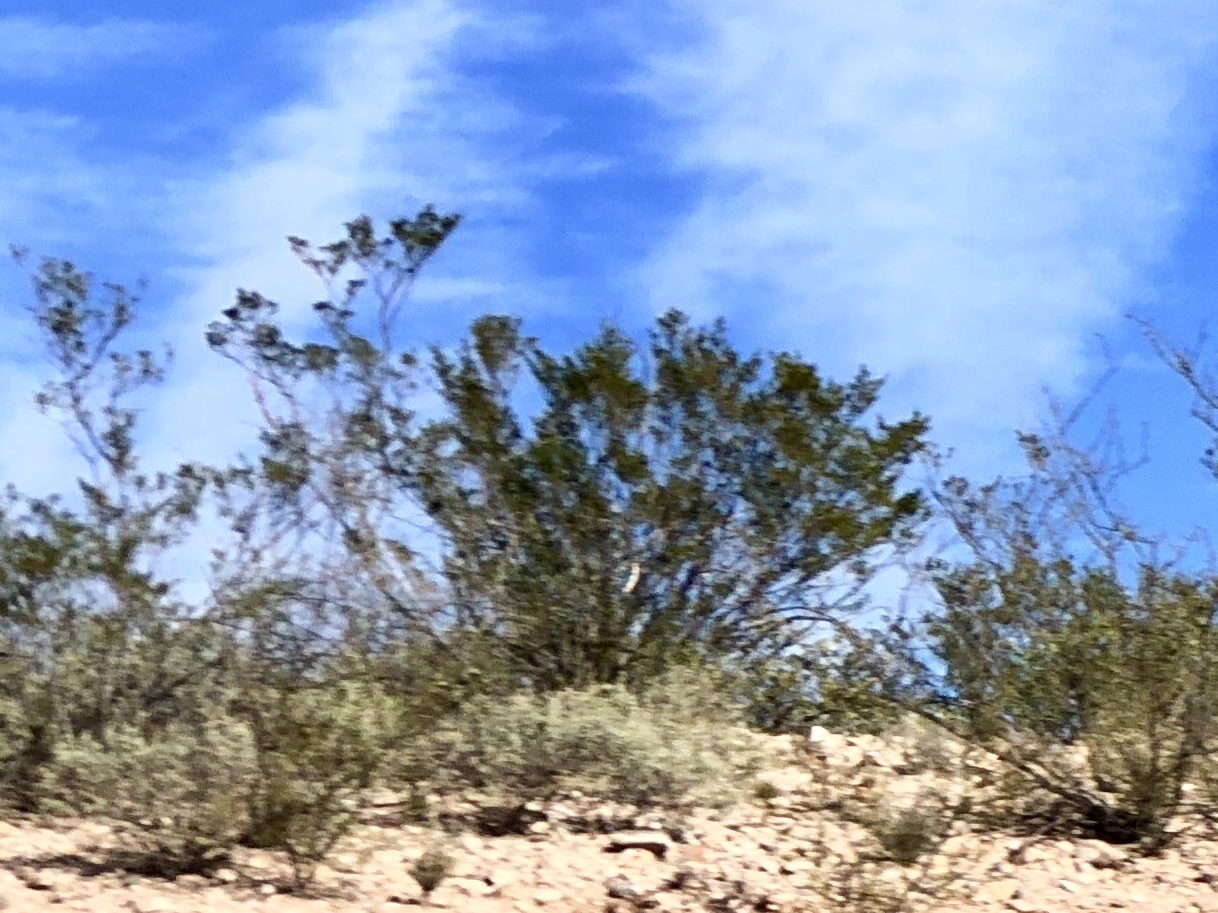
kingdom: Plantae
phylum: Tracheophyta
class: Magnoliopsida
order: Zygophyllales
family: Zygophyllaceae
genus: Larrea
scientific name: Larrea tridentata
